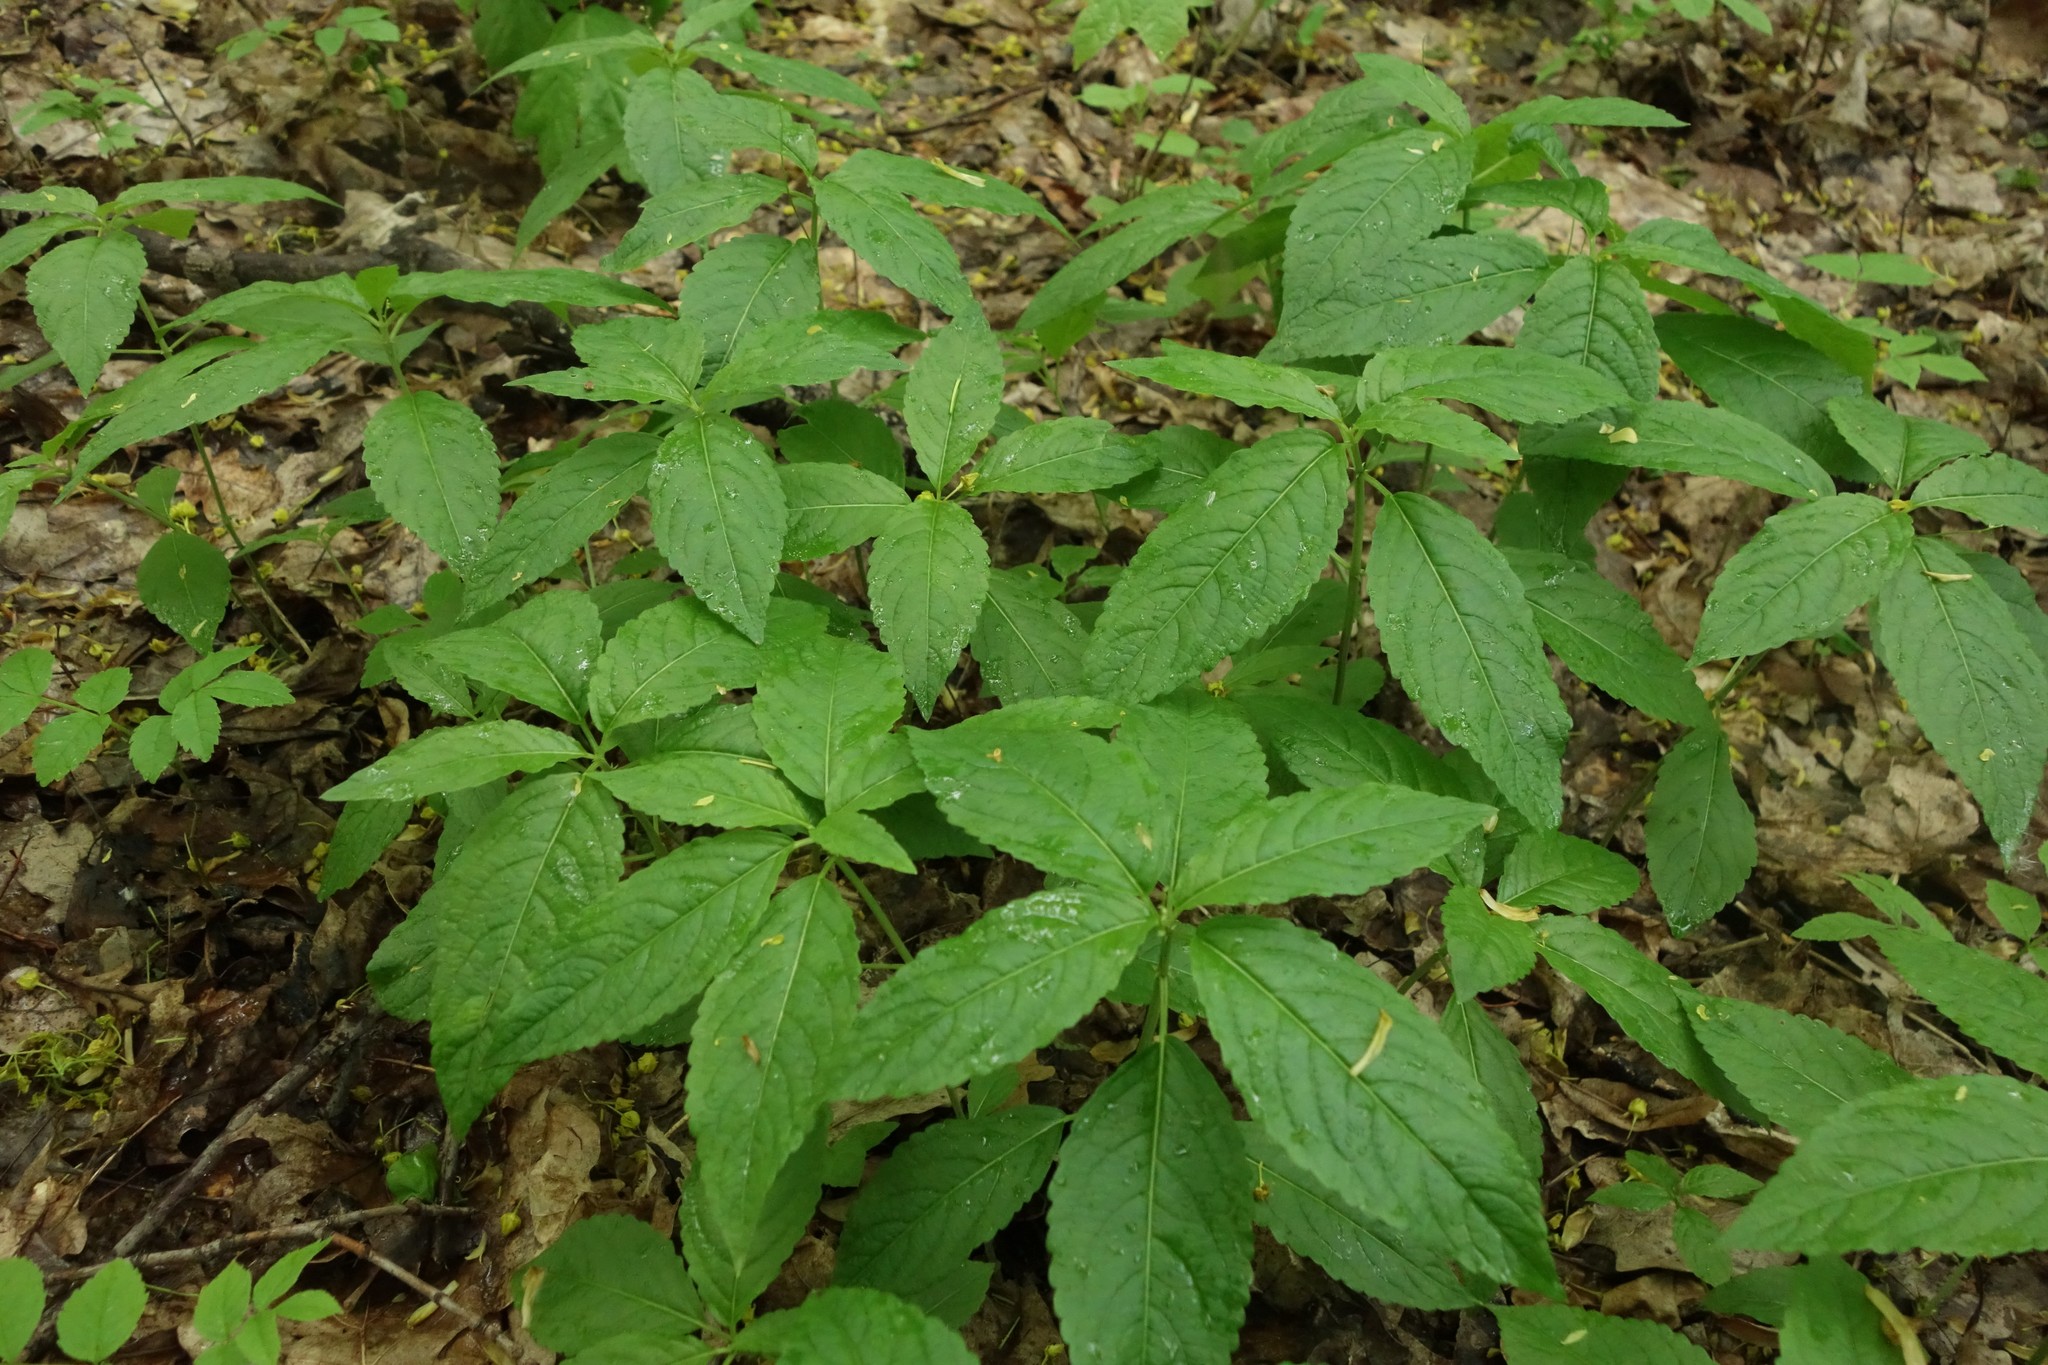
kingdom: Plantae
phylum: Tracheophyta
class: Magnoliopsida
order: Malpighiales
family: Euphorbiaceae
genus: Mercurialis
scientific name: Mercurialis perennis
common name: Dog mercury
